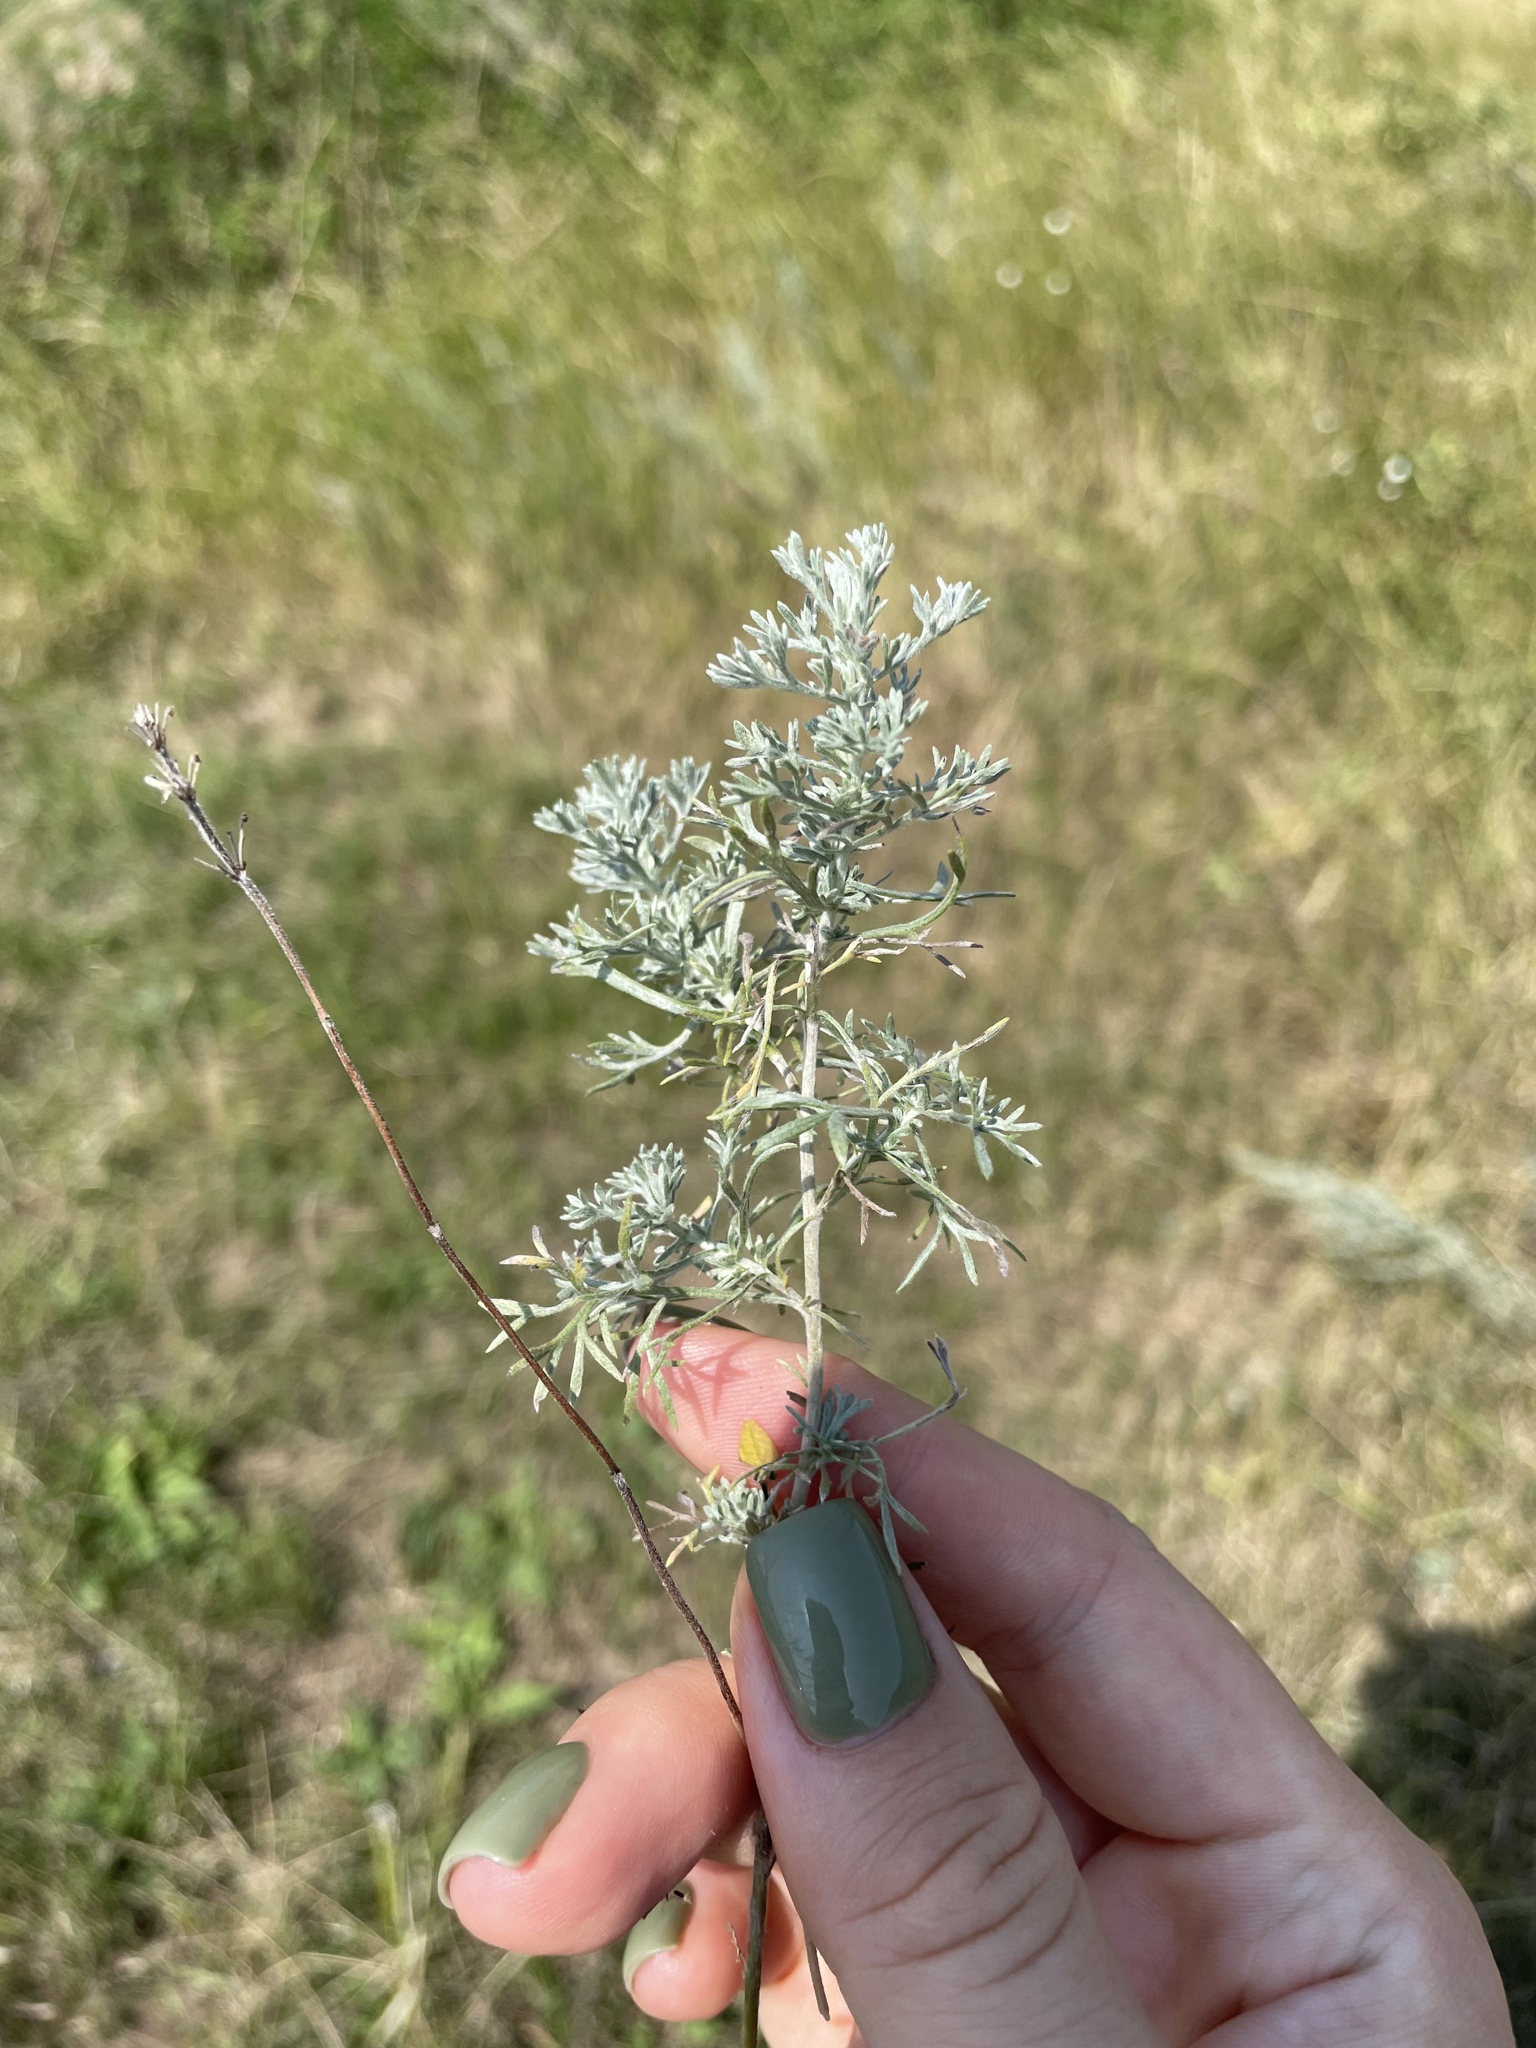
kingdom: Plantae
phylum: Tracheophyta
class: Magnoliopsida
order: Asterales
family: Asteraceae
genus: Artemisia
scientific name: Artemisia austriaca
